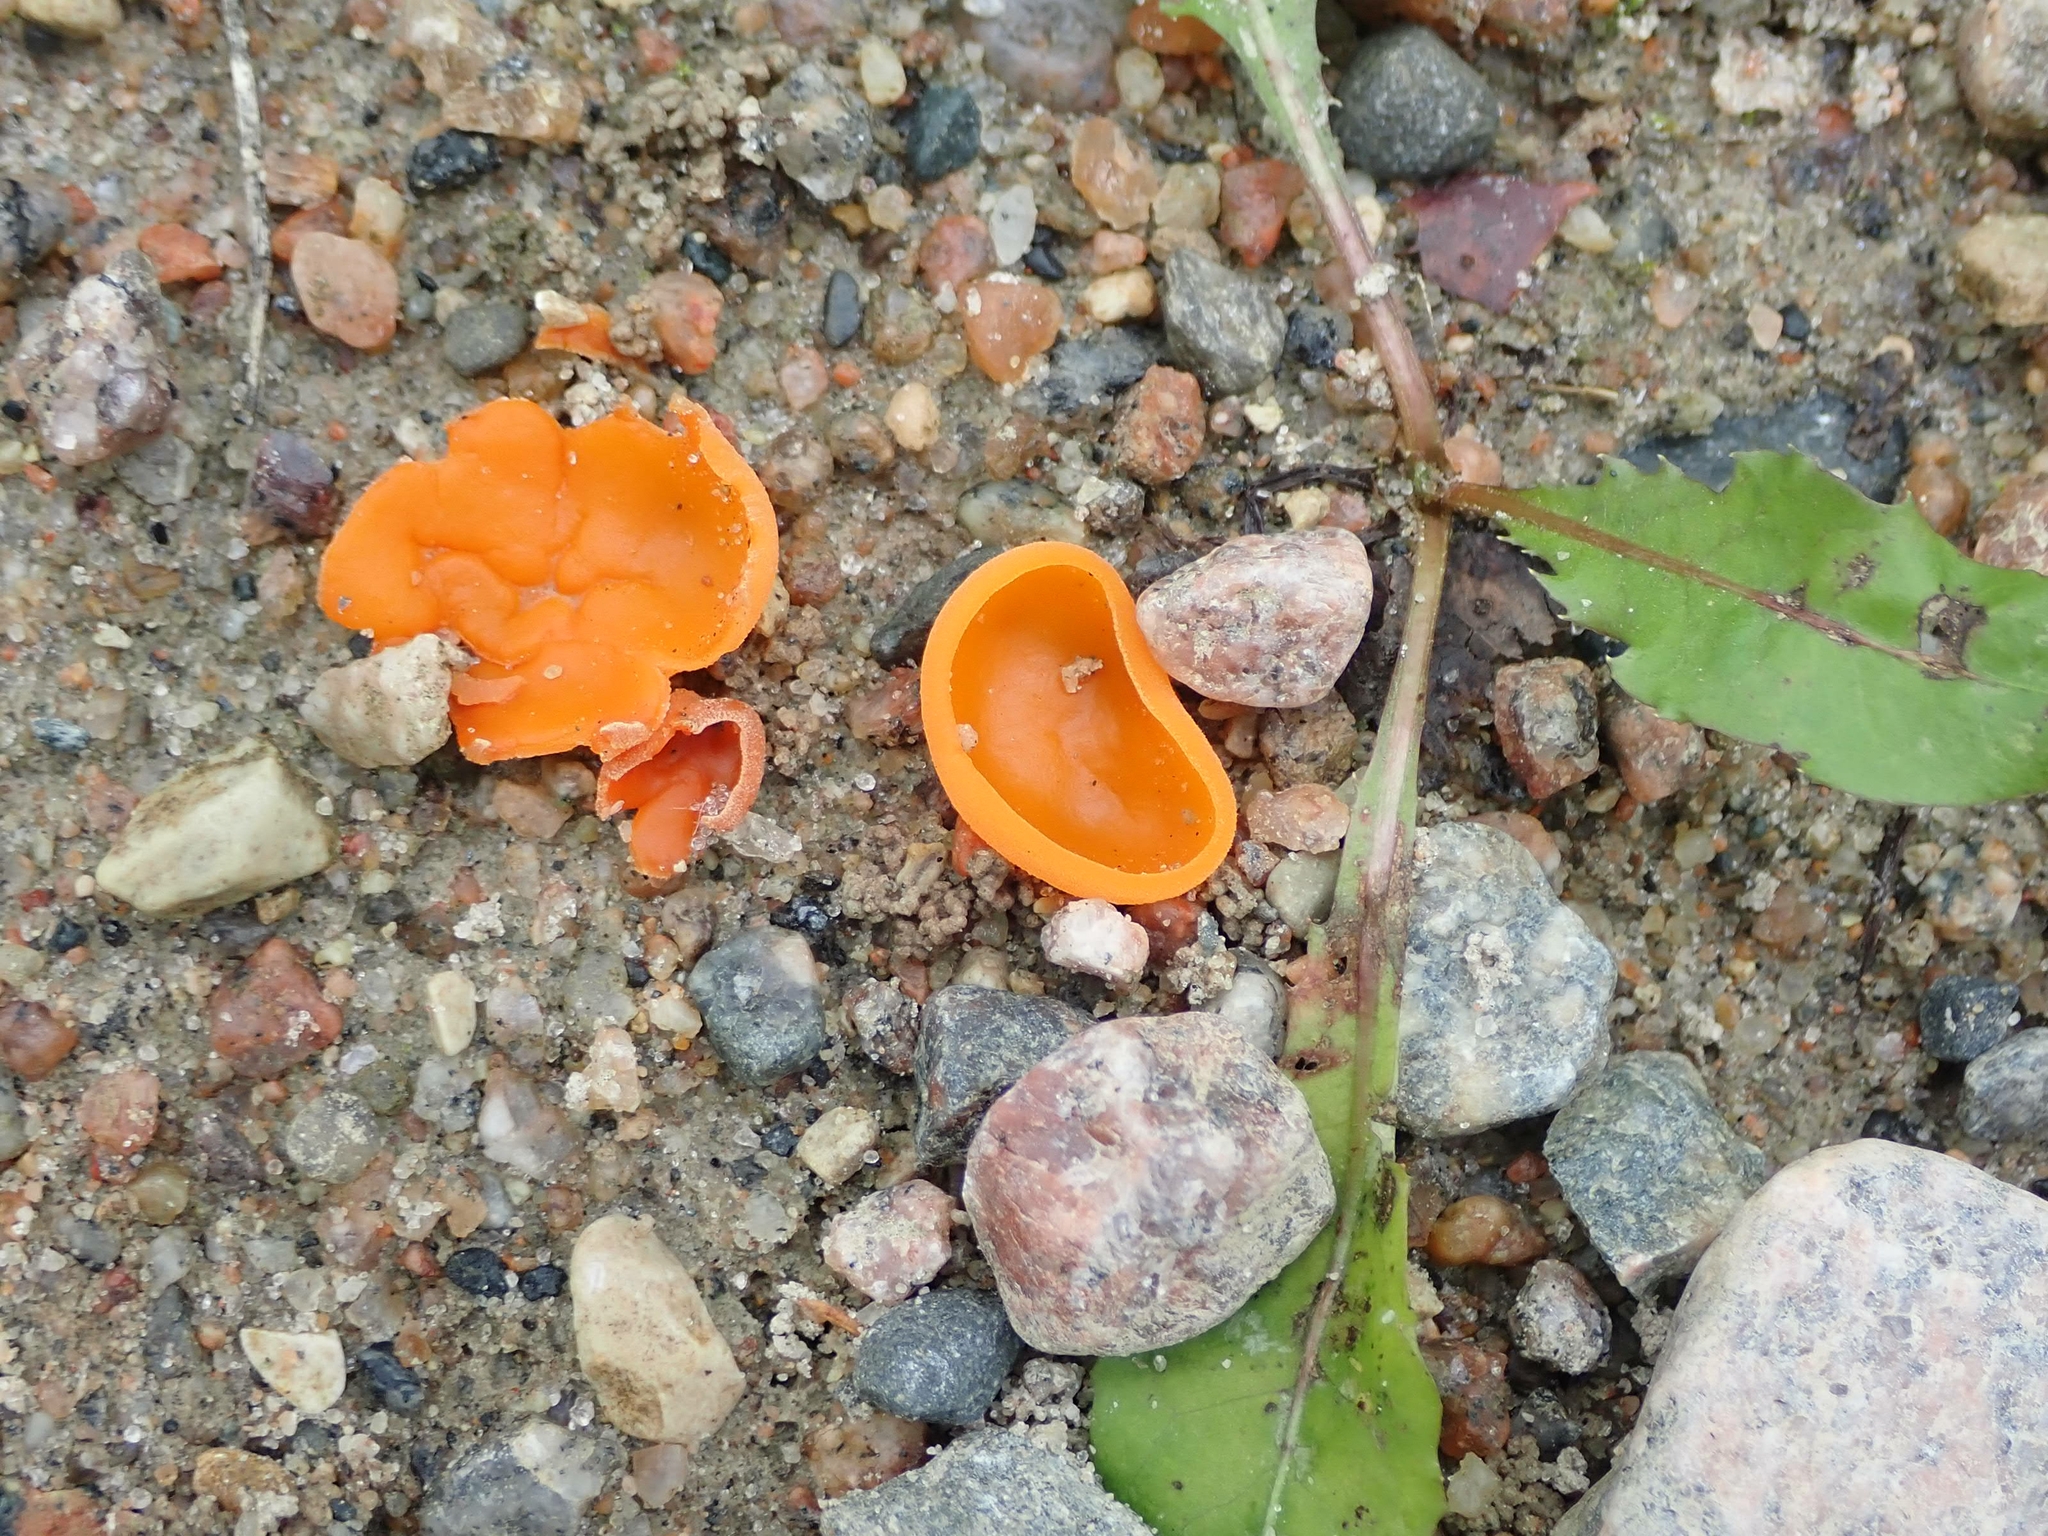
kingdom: Fungi
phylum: Ascomycota
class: Pezizomycetes
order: Pezizales
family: Pyronemataceae
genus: Aleuria
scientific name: Aleuria aurantia
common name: Orange peel fungus
